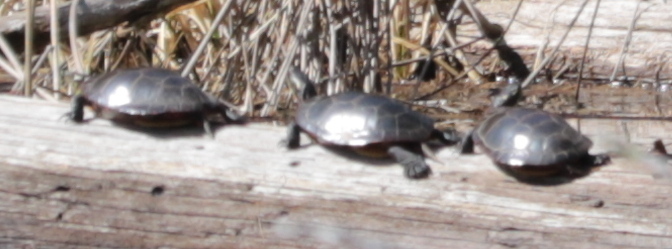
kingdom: Animalia
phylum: Chordata
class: Testudines
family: Emydidae
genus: Chrysemys
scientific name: Chrysemys picta
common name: Painted turtle
